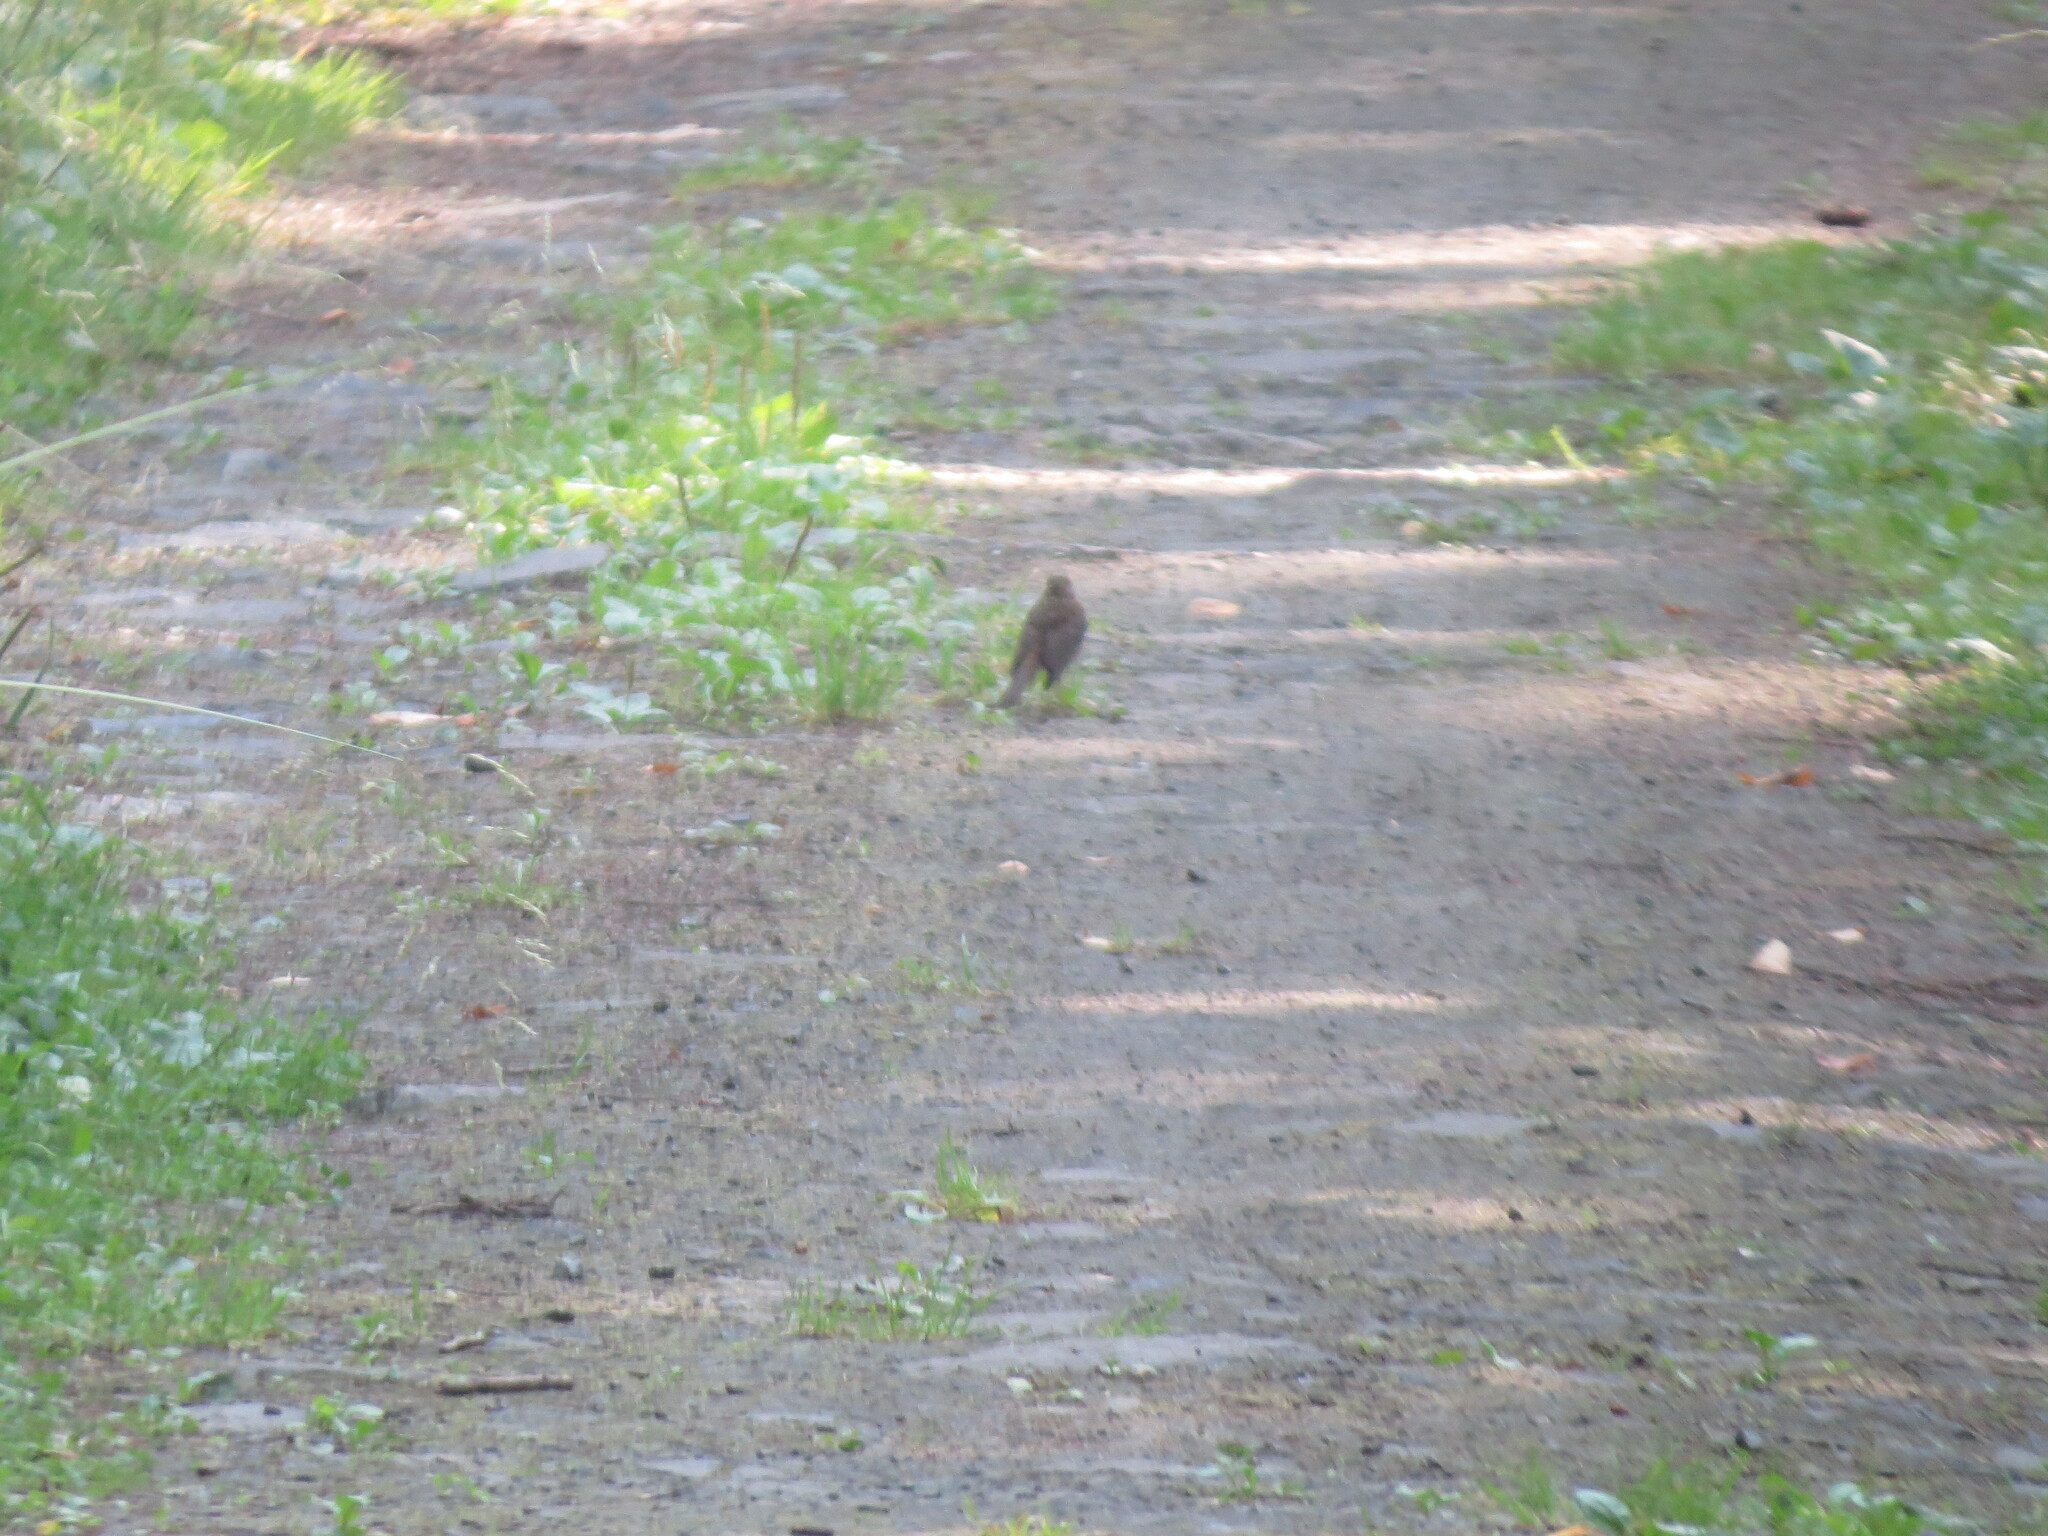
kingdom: Animalia
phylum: Chordata
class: Aves
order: Passeriformes
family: Muscicapidae
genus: Erithacus
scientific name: Erithacus rubecula
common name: European robin
